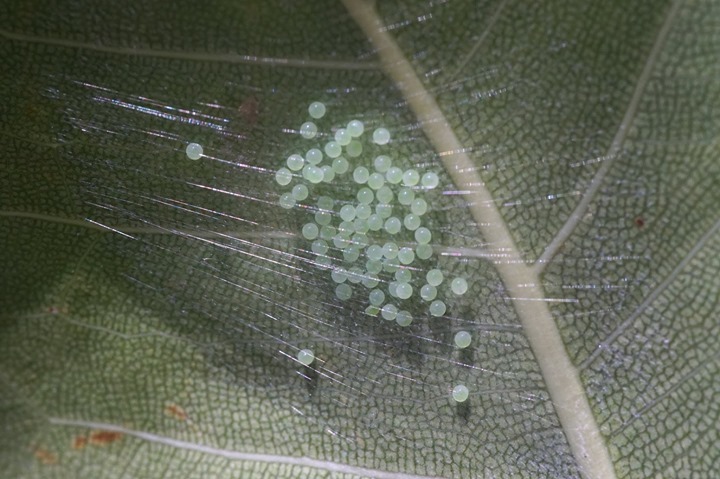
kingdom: Animalia
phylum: Arthropoda
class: Arachnida
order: Araneae
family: Salticidae
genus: Lyssomanes
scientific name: Lyssomanes viridis
